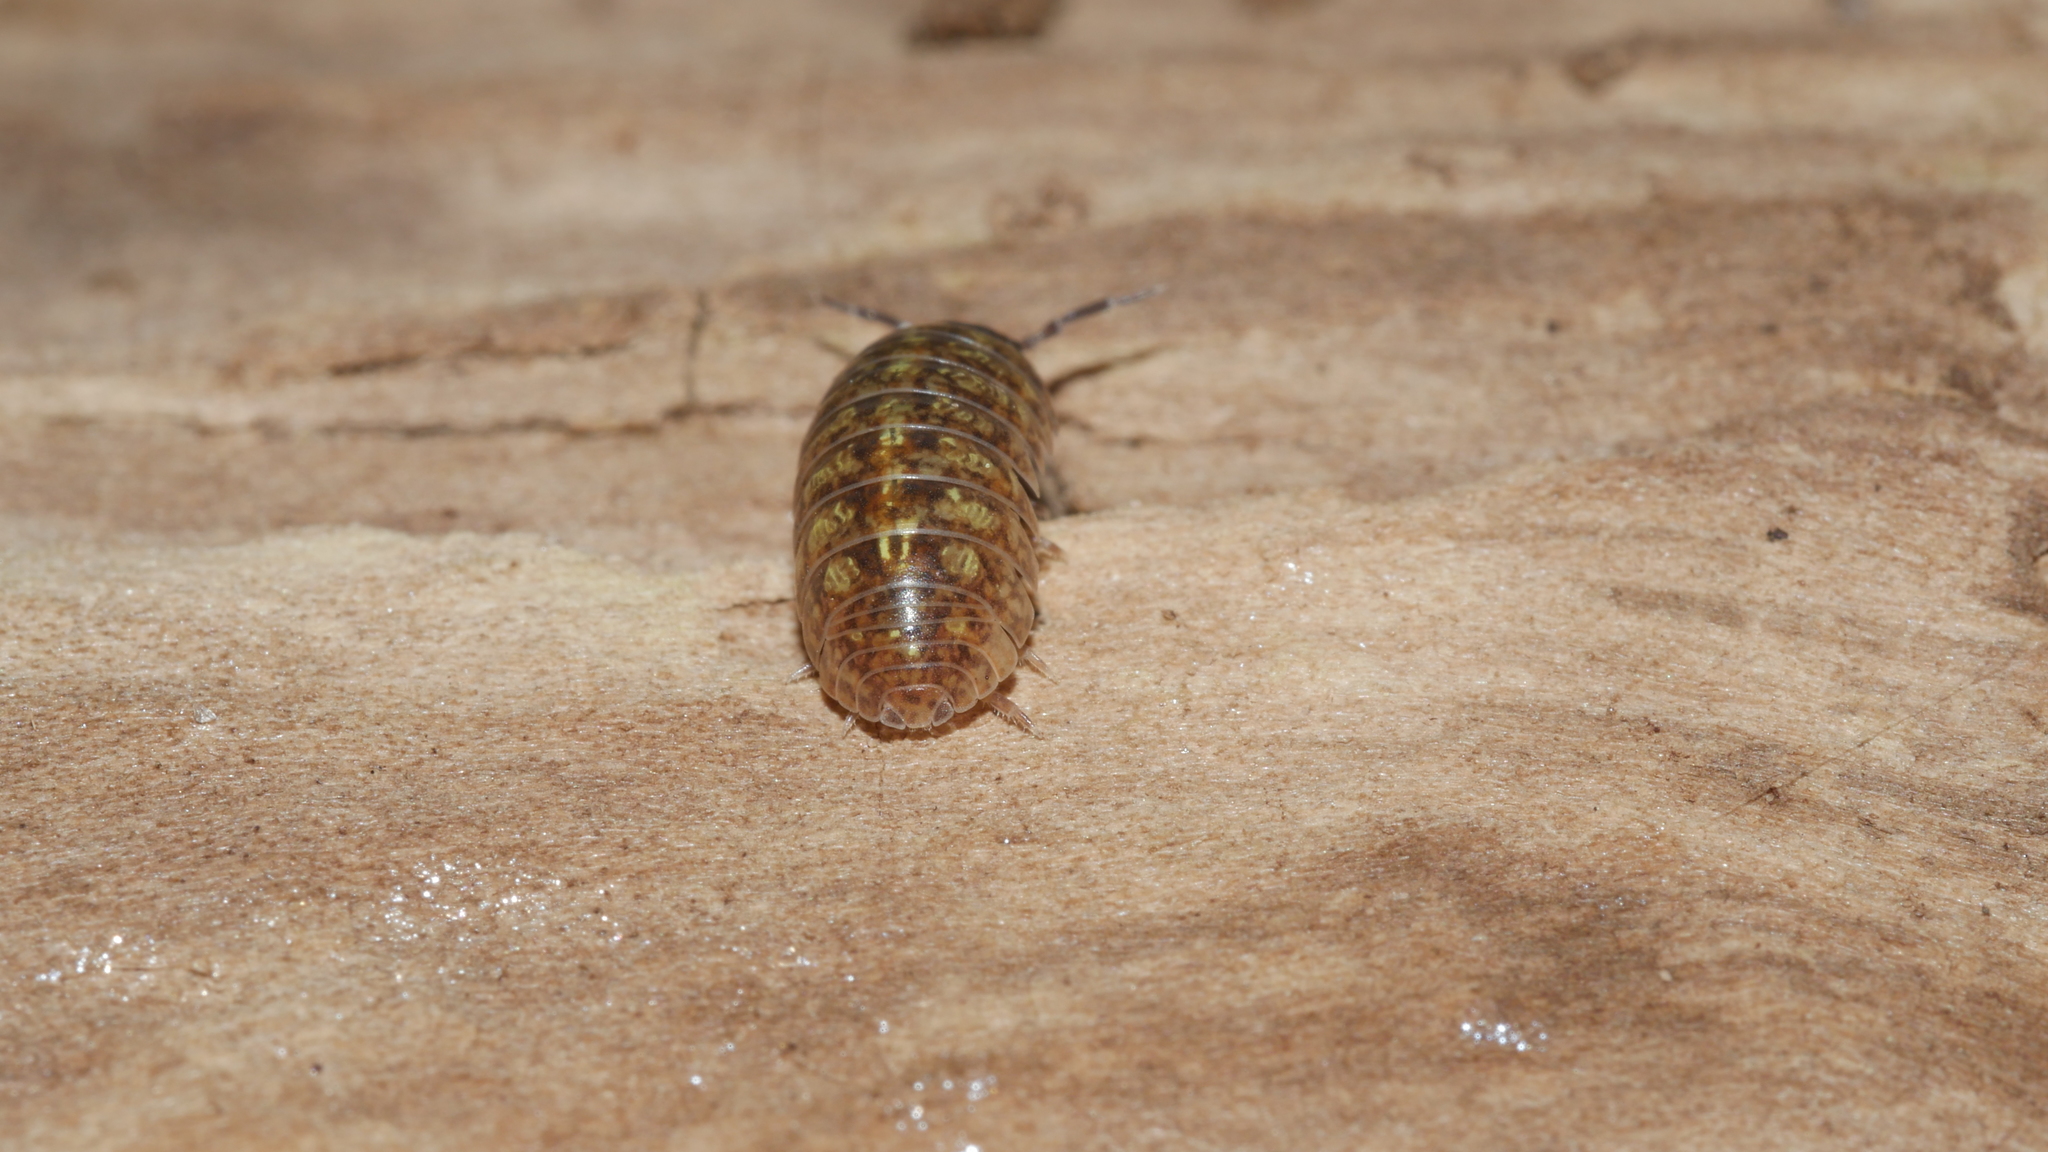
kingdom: Animalia
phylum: Arthropoda
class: Malacostraca
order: Isopoda
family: Armadillidiidae
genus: Armadillidium
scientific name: Armadillidium vulgare
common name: Common pill woodlouse
